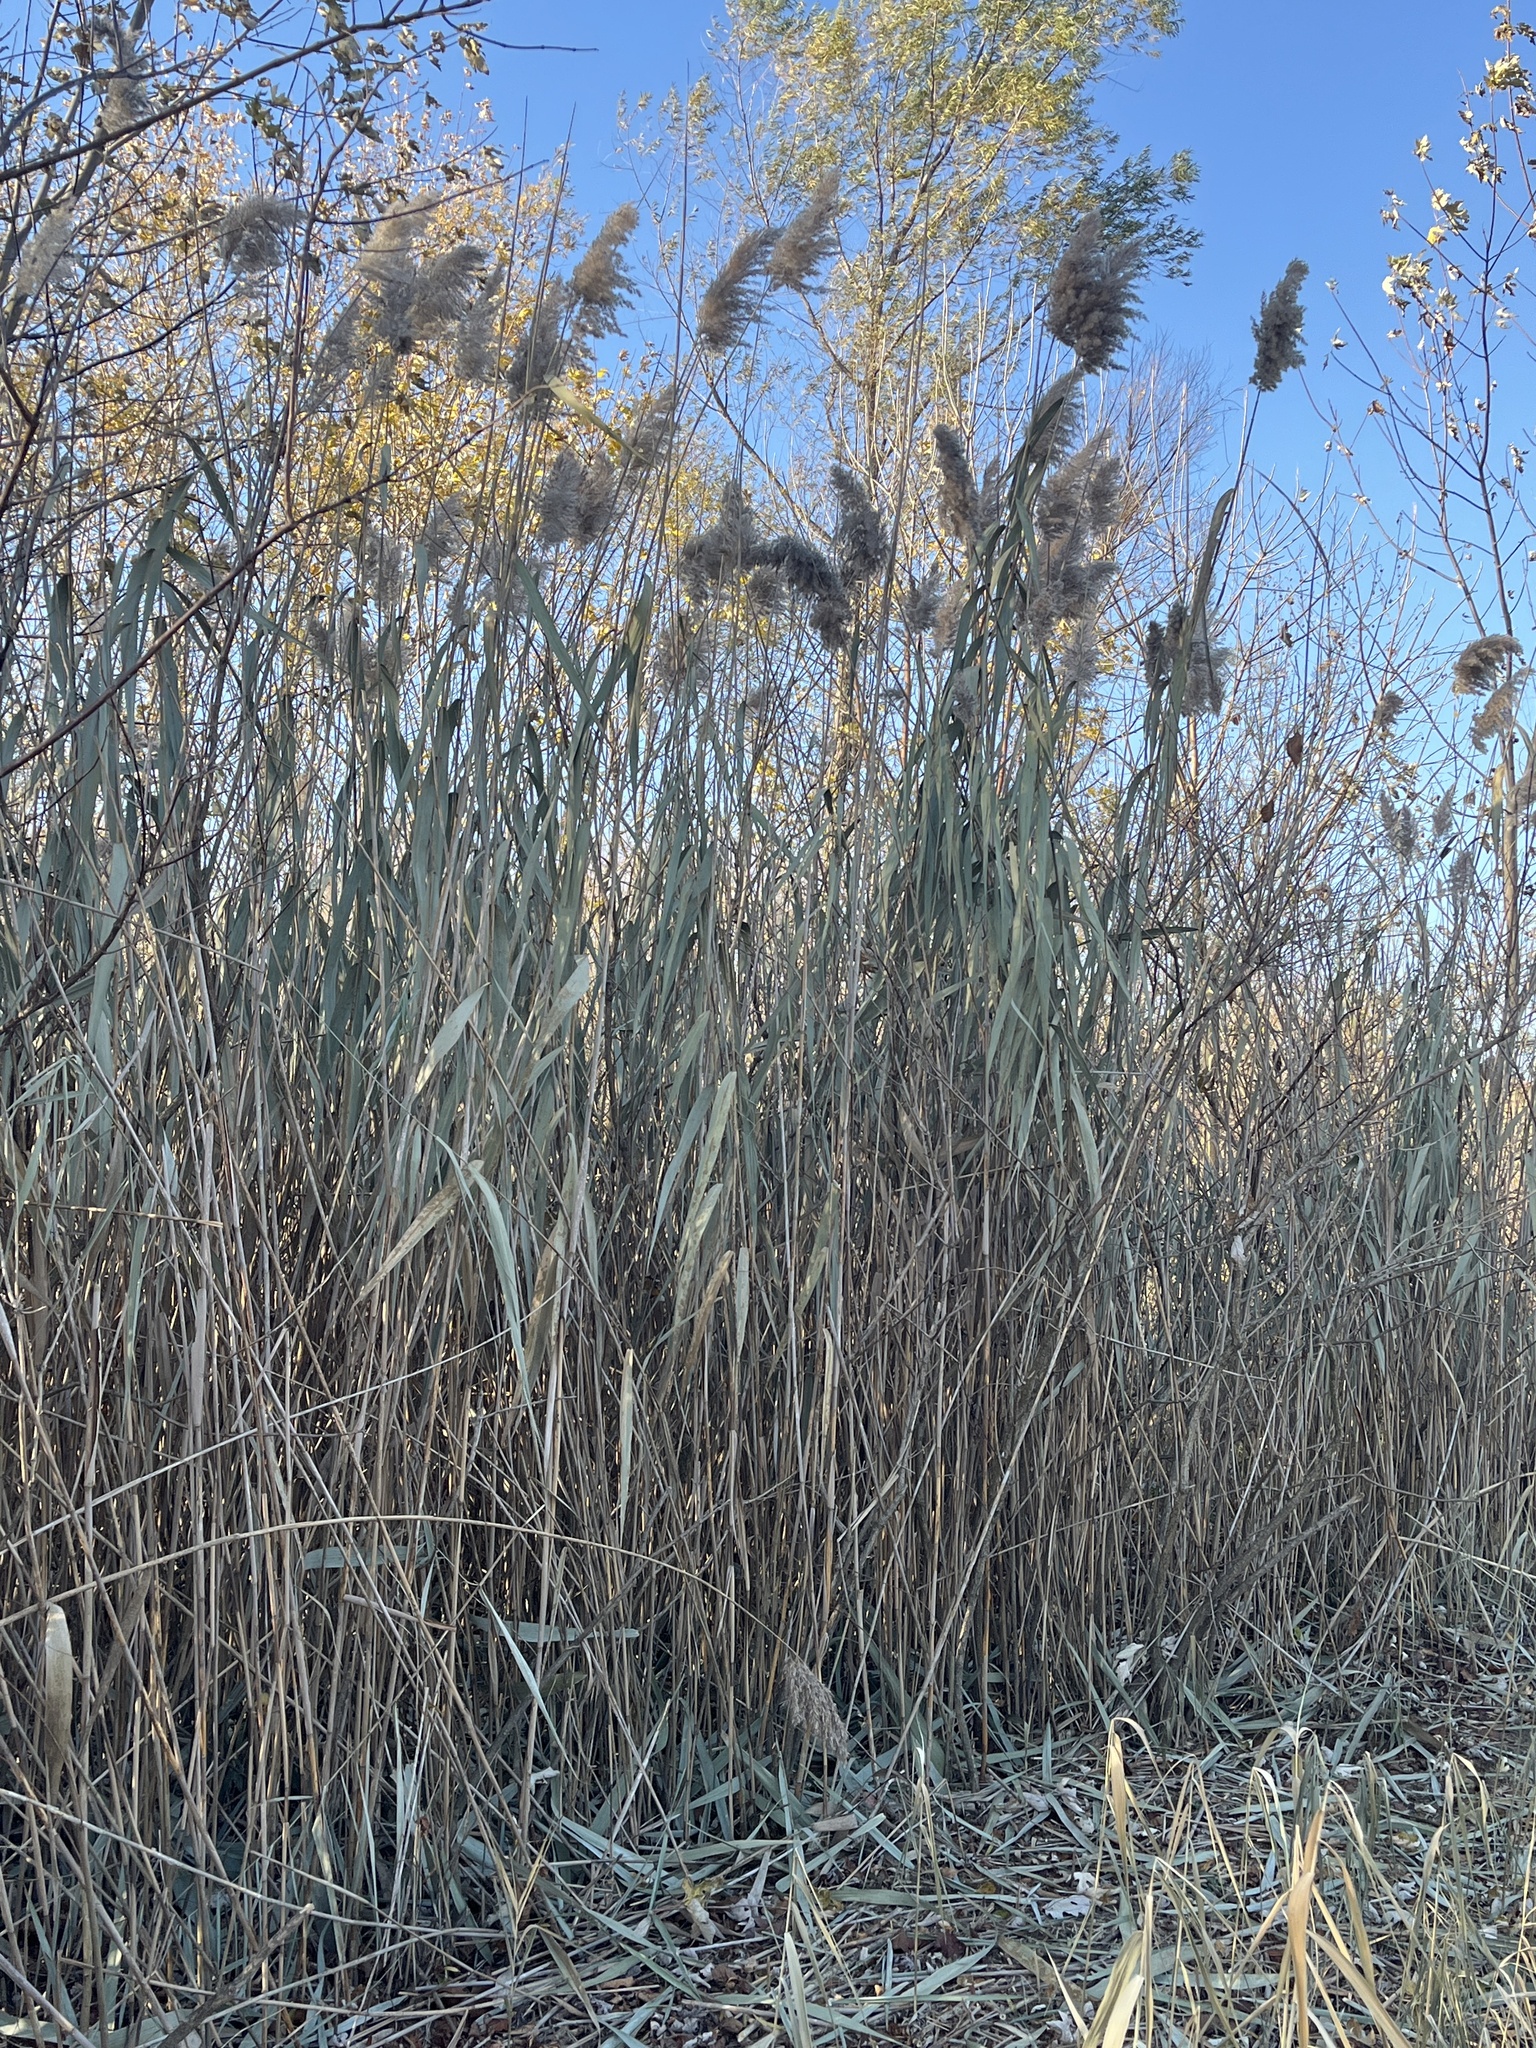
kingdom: Plantae
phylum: Tracheophyta
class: Liliopsida
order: Poales
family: Poaceae
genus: Phragmites
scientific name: Phragmites australis
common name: Common reed
